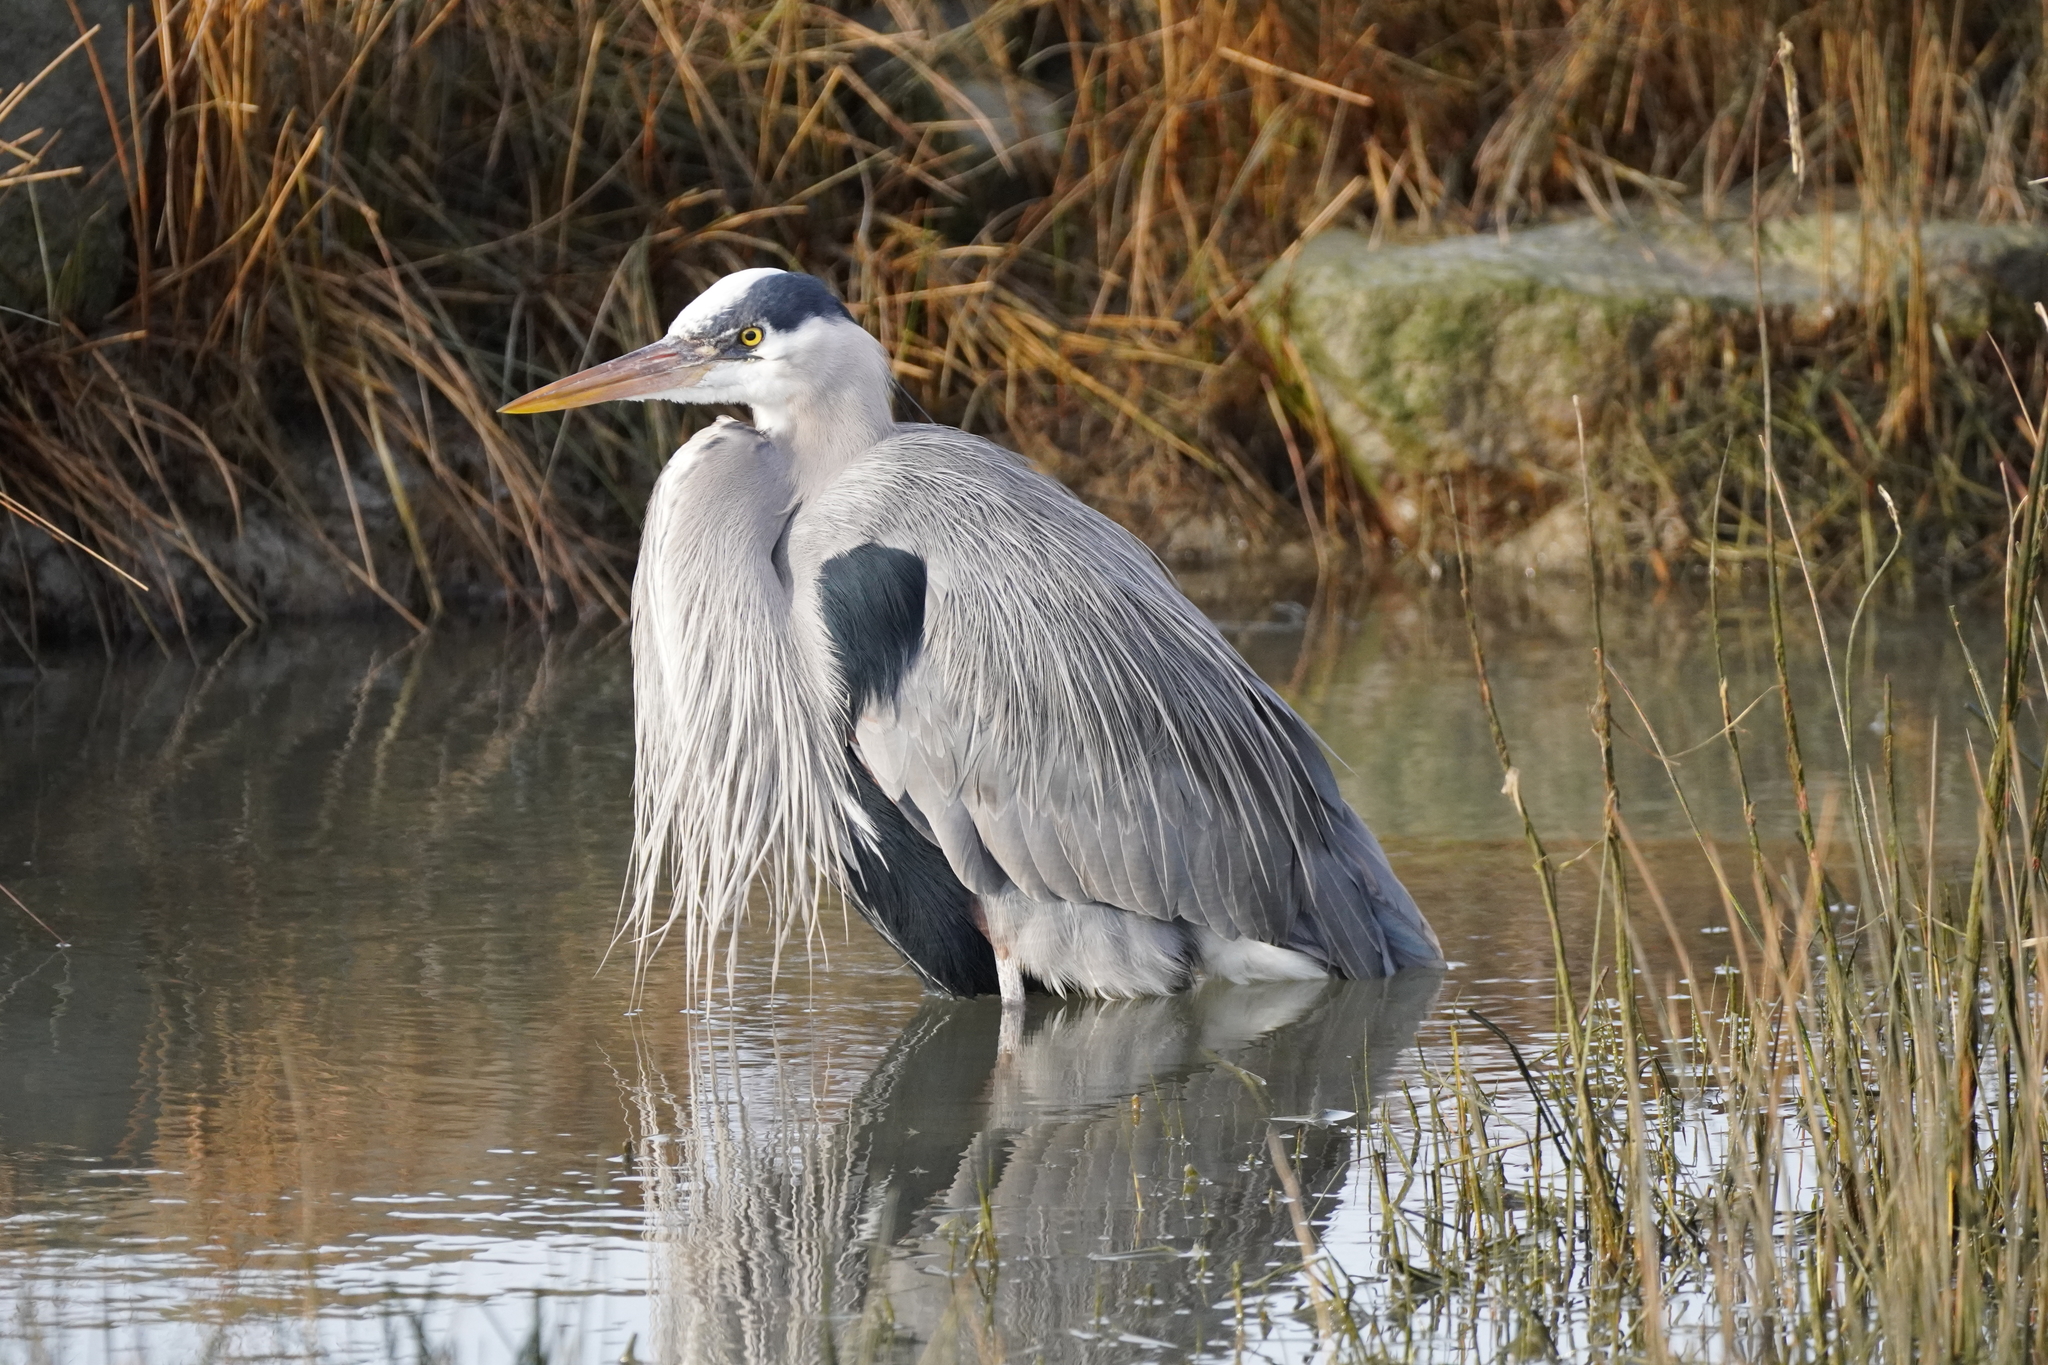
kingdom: Animalia
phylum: Chordata
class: Aves
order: Pelecaniformes
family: Ardeidae
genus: Ardea
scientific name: Ardea herodias
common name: Great blue heron
